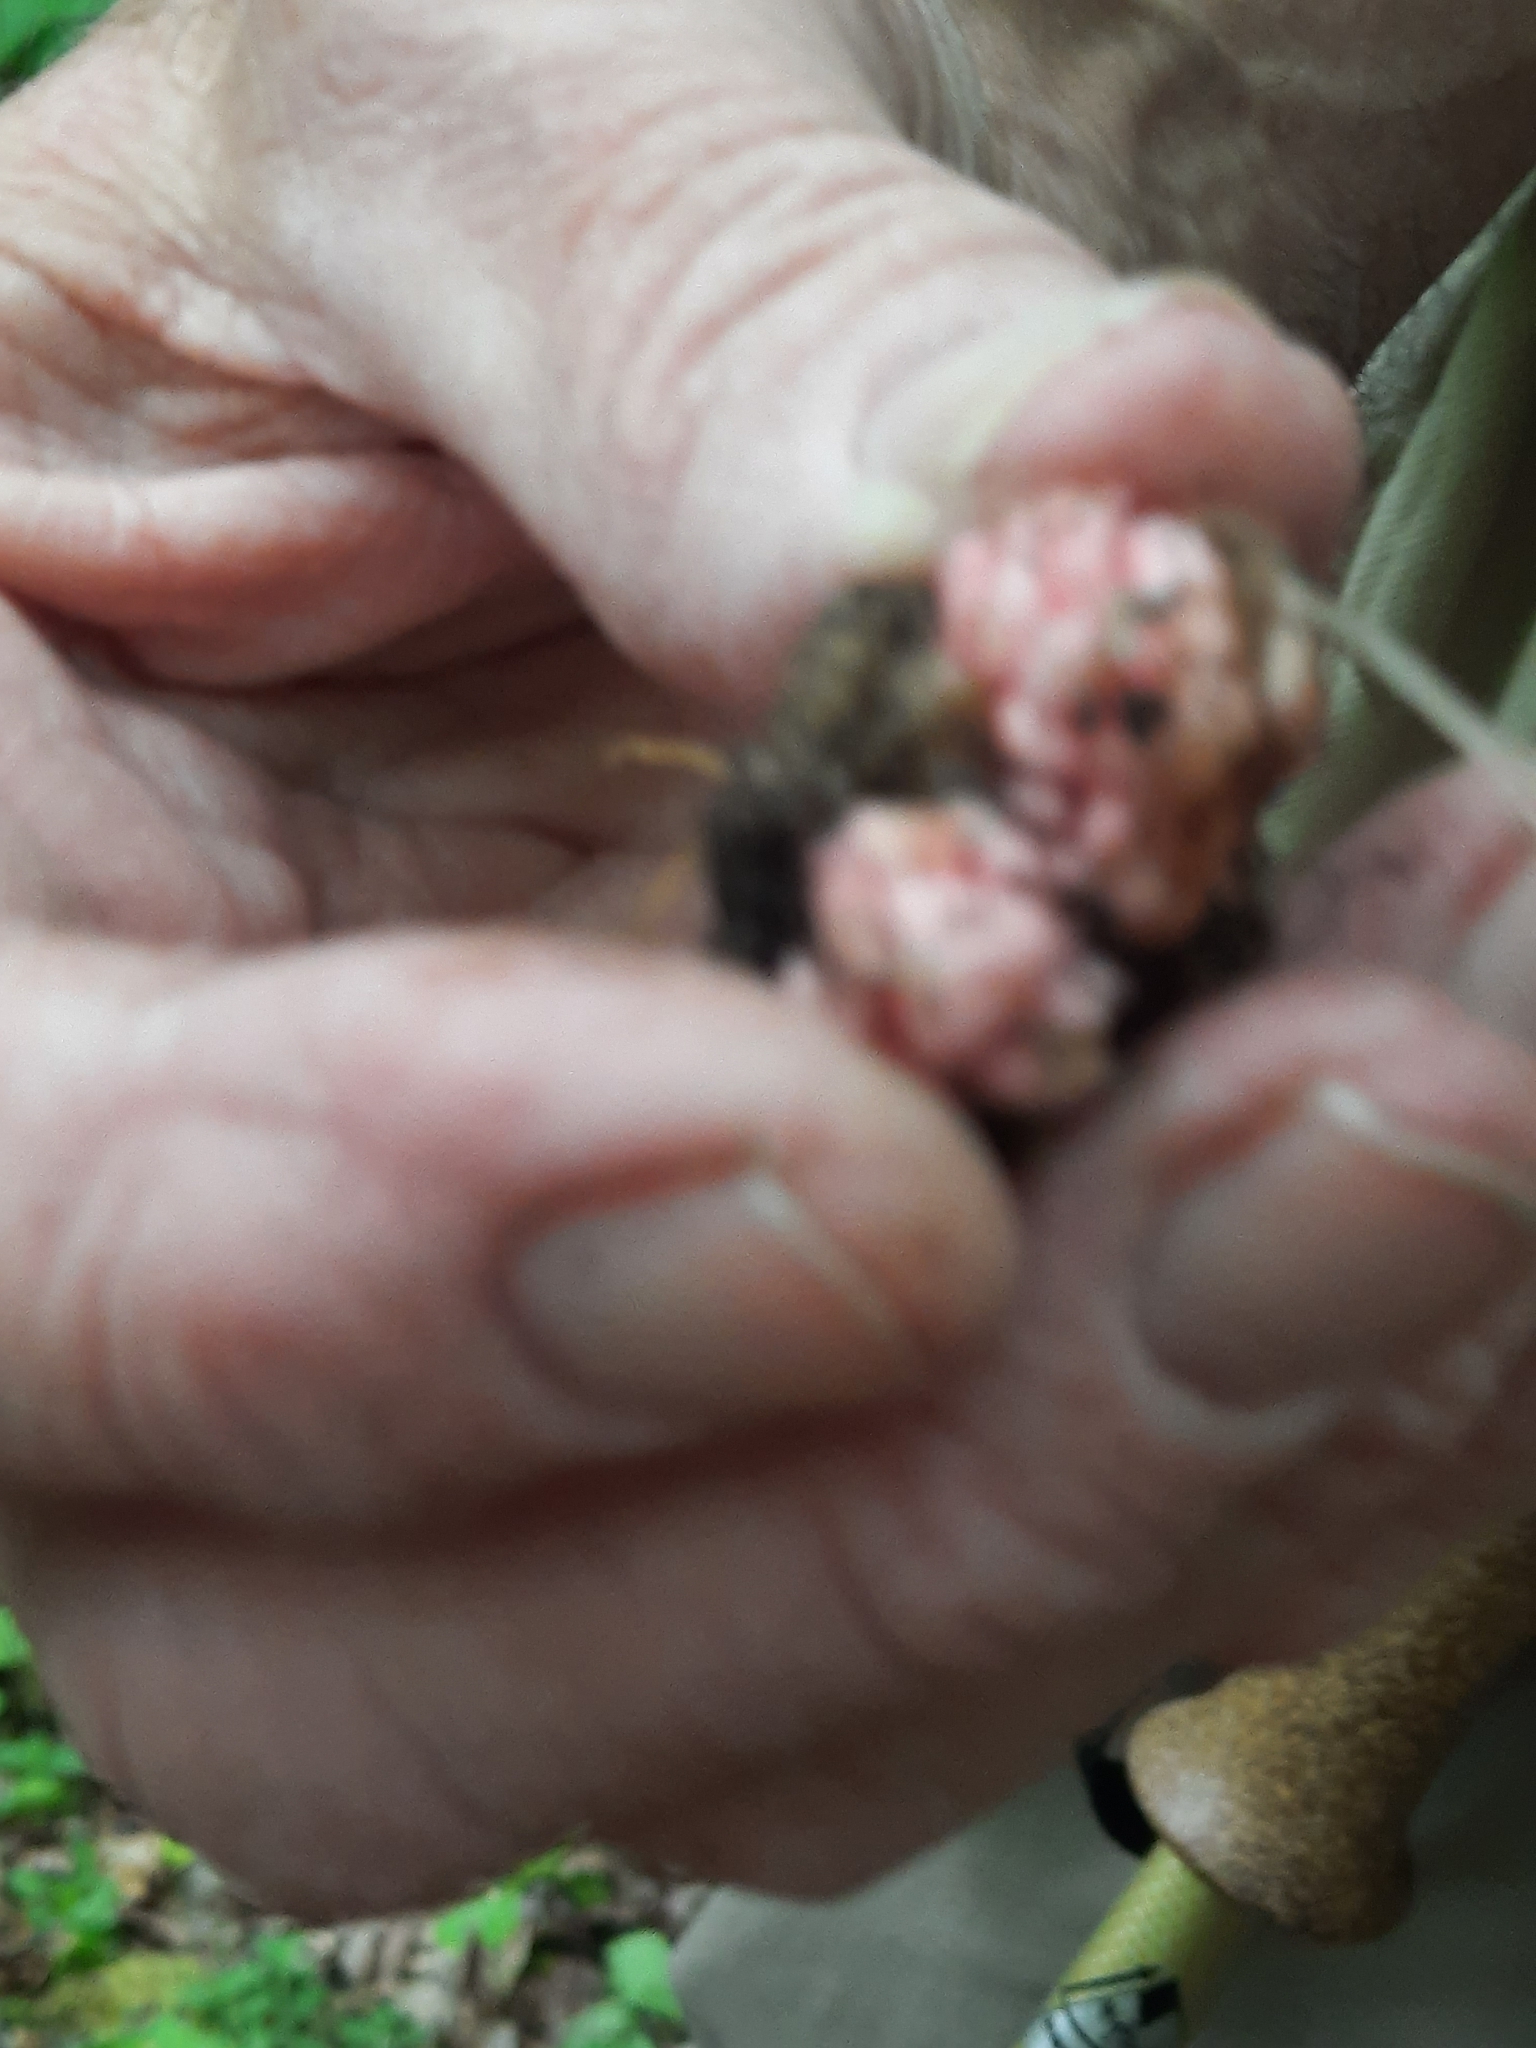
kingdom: Plantae
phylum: Tracheophyta
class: Magnoliopsida
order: Ranunculales
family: Papaveraceae
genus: Dicentra
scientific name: Dicentra cucullaria
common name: Dutchman's breeches
